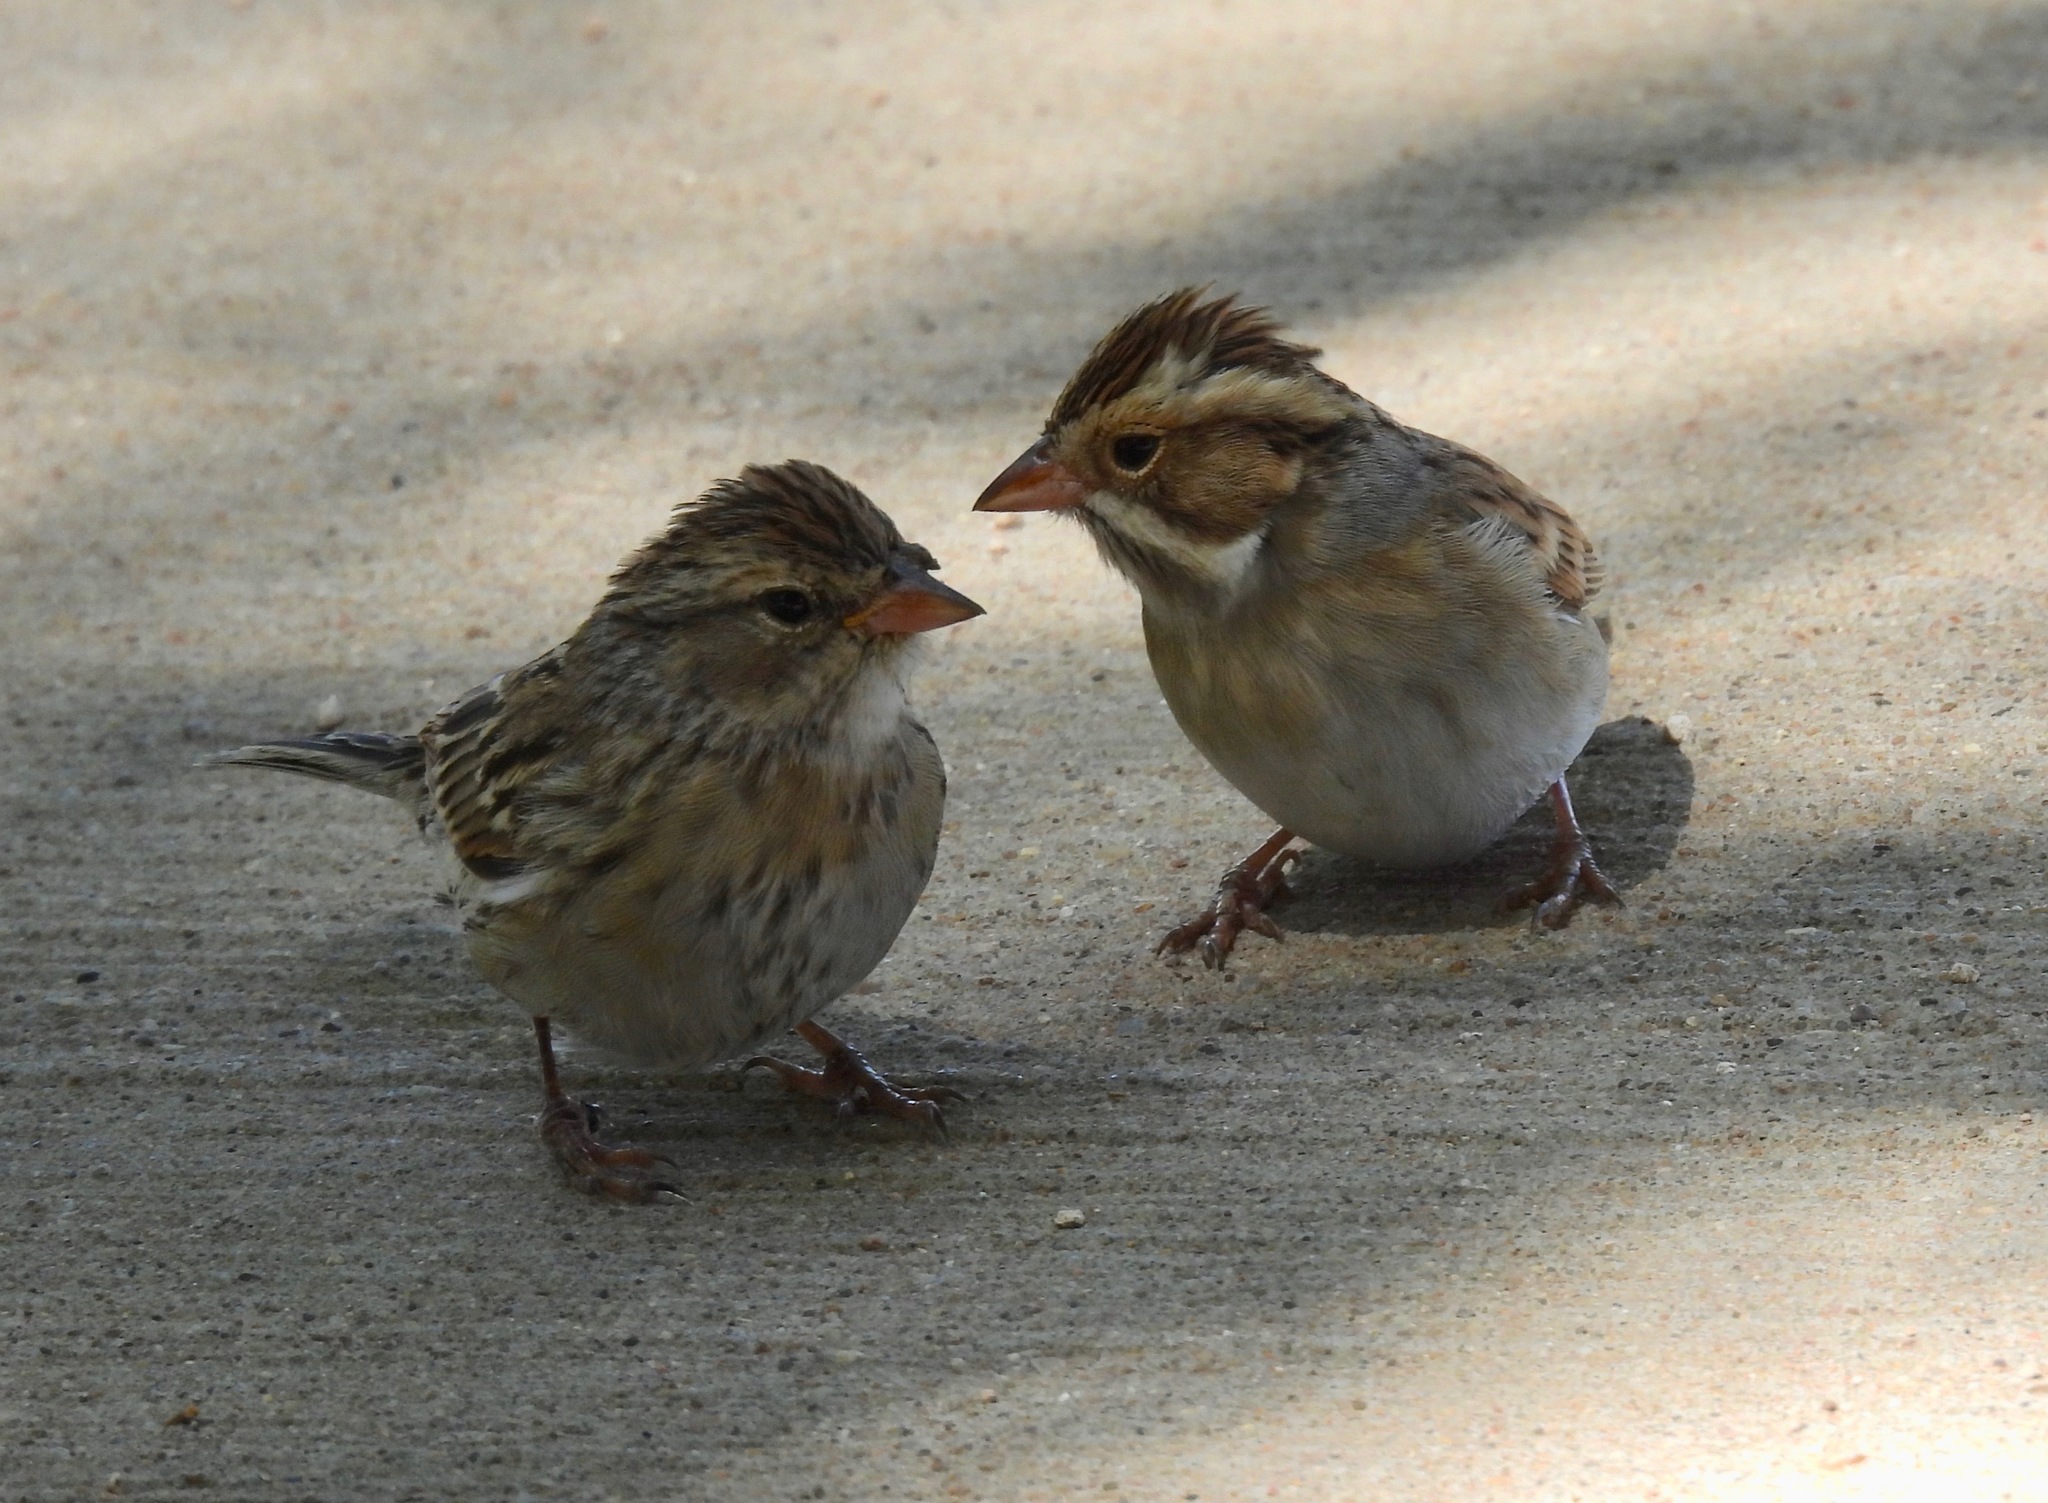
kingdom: Animalia
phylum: Chordata
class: Aves
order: Passeriformes
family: Passerellidae
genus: Spizella
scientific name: Spizella pallida
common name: Clay-colored sparrow
